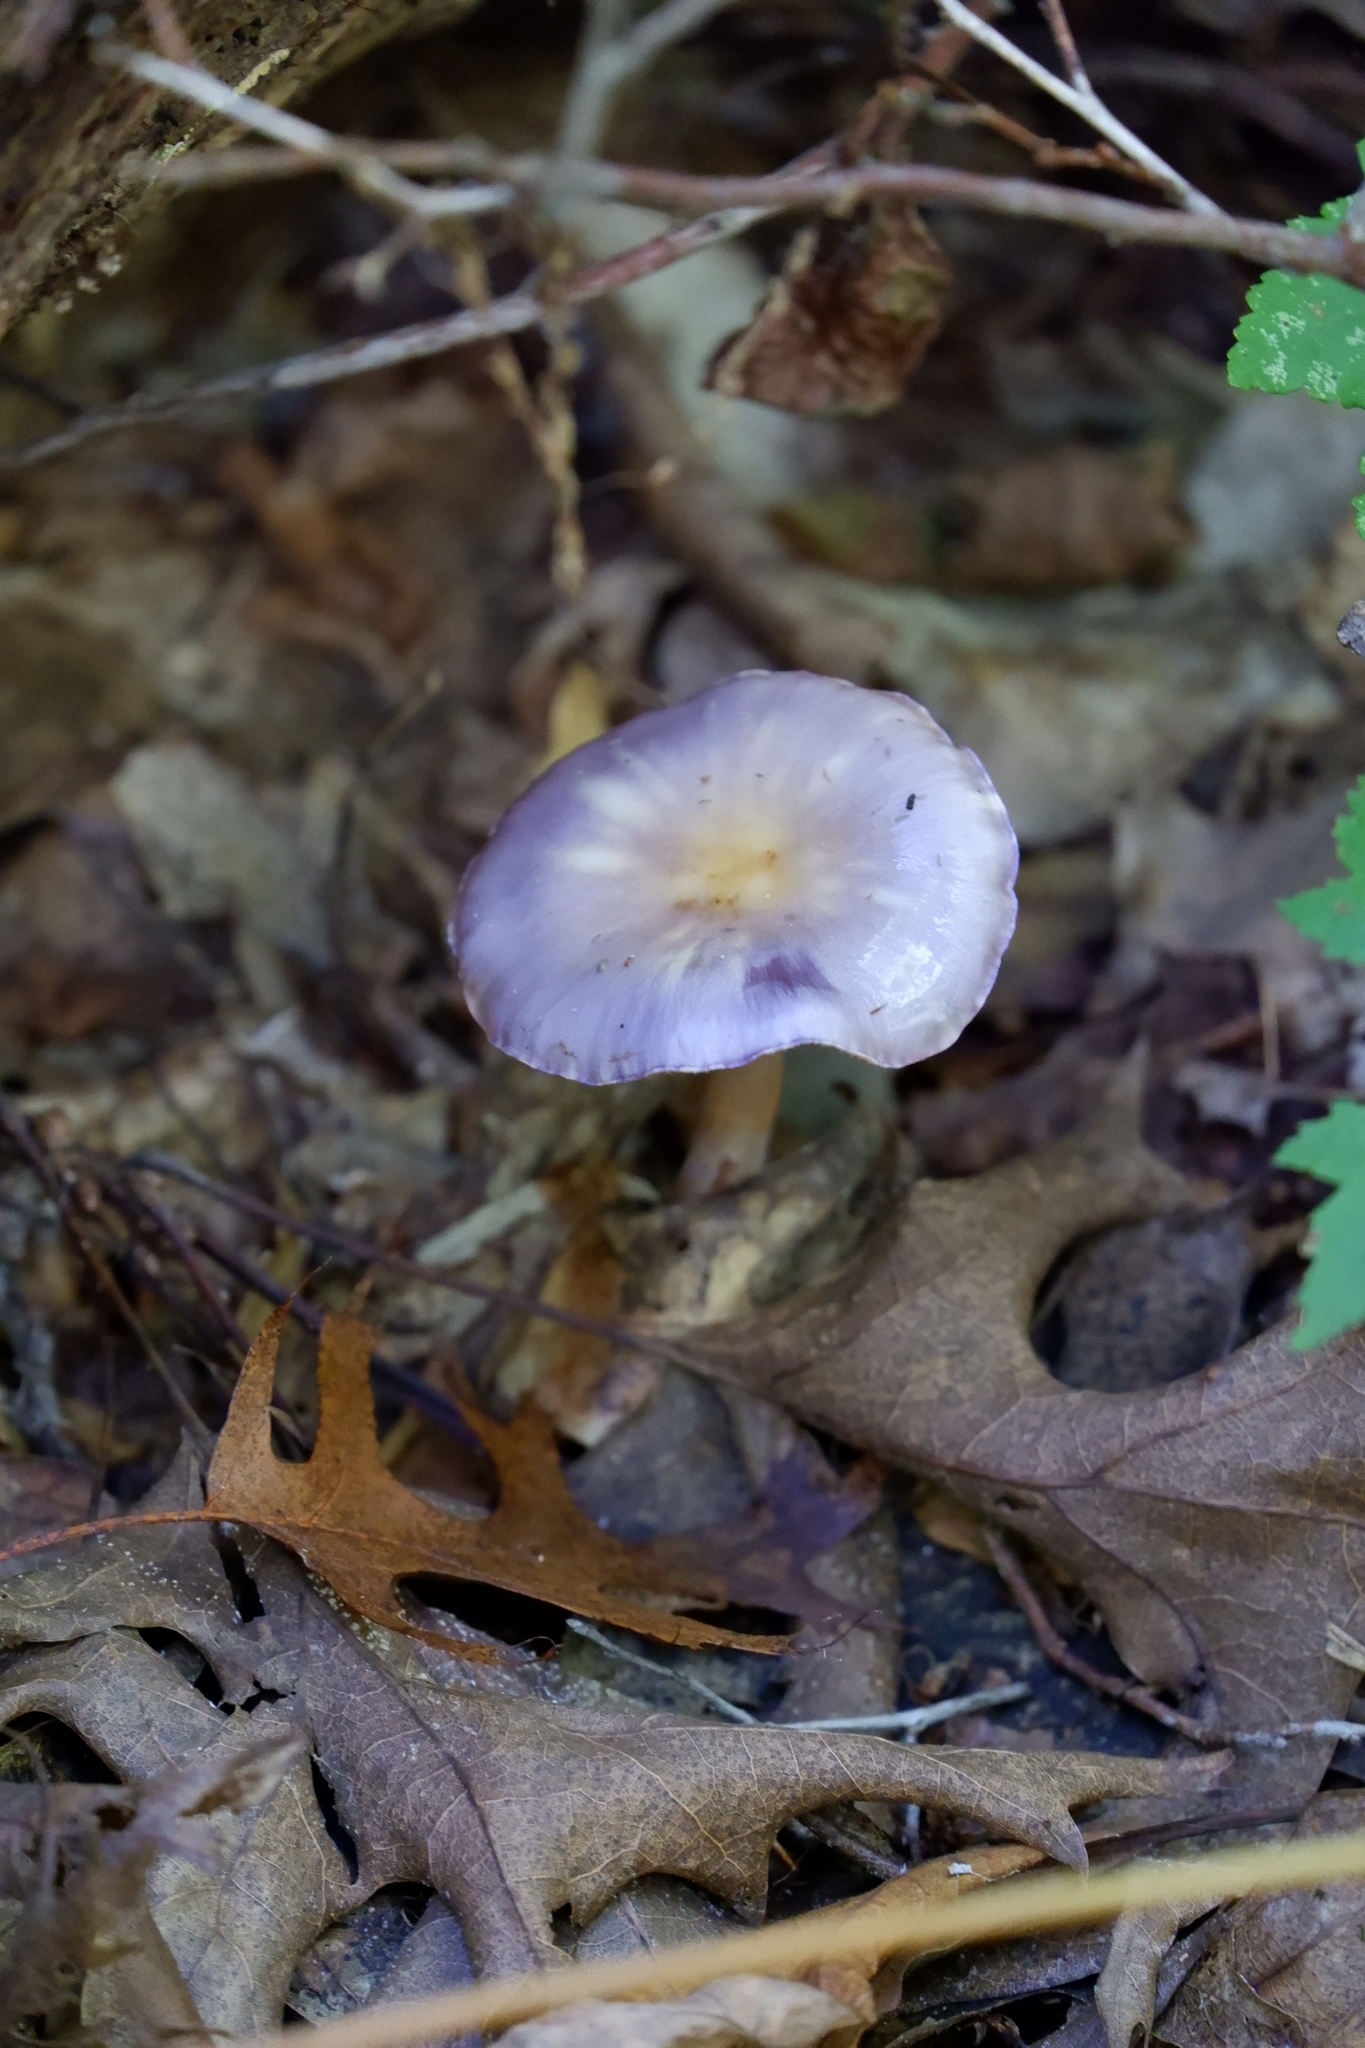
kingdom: Fungi
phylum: Basidiomycota
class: Agaricomycetes
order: Agaricales
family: Cortinariaceae
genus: Cortinarius
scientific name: Cortinarius iodes
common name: Viscid violet cort
